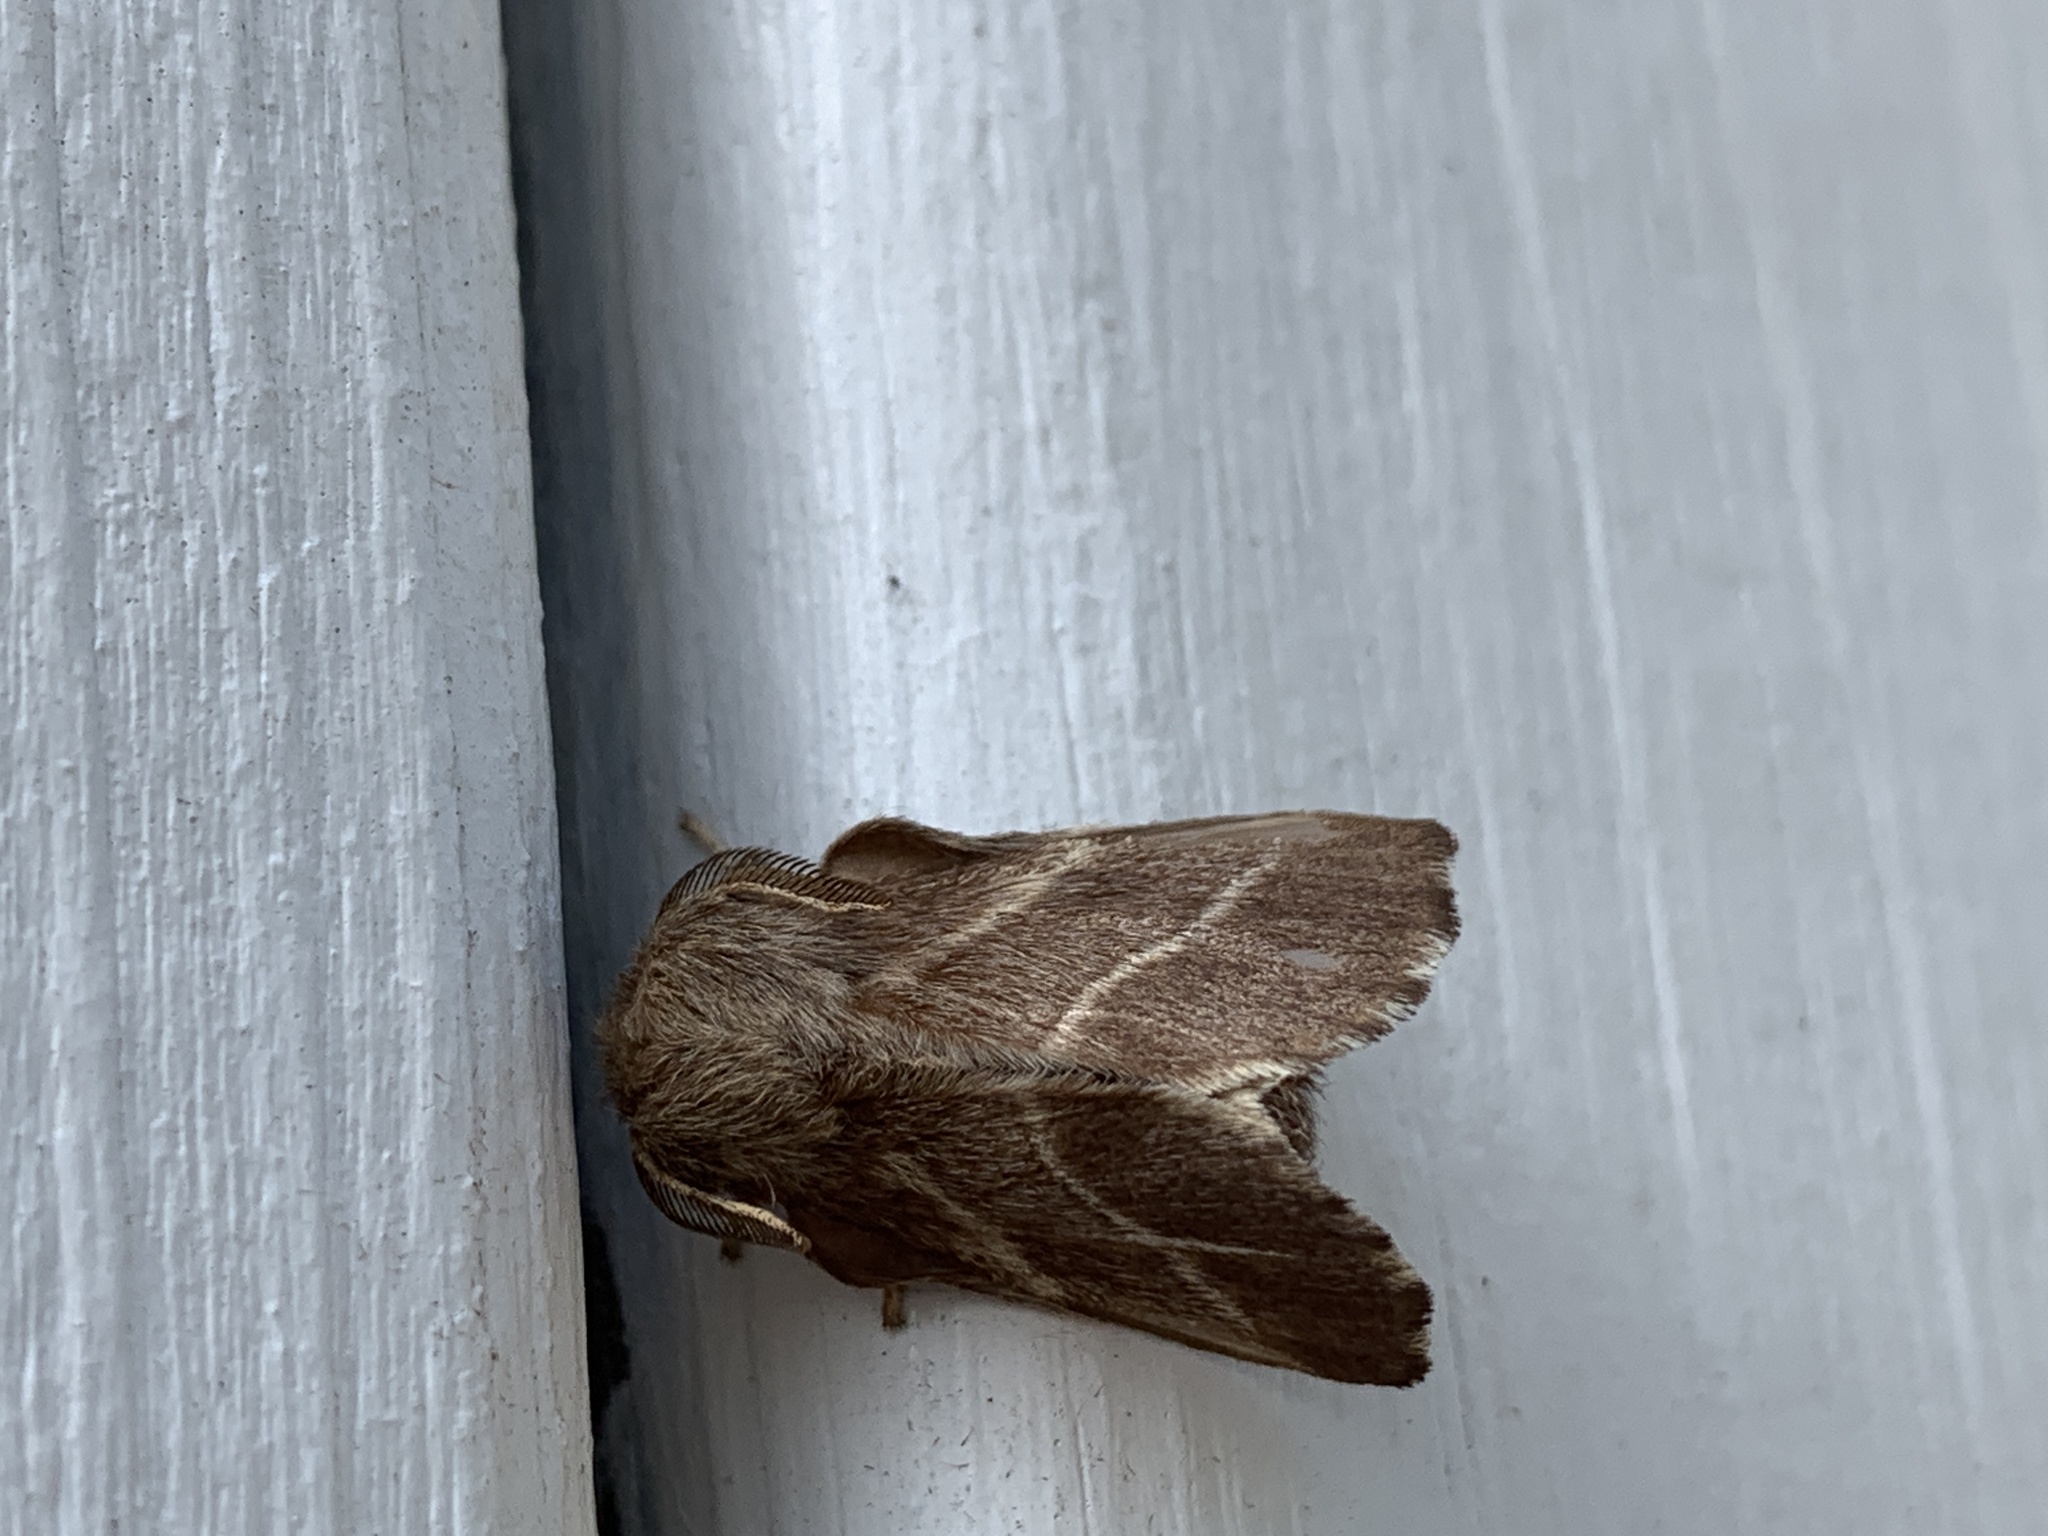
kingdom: Animalia
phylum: Arthropoda
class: Insecta
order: Lepidoptera
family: Lasiocampidae
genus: Malacosoma
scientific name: Malacosoma americana
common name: Eastern tent caterpillar moth
